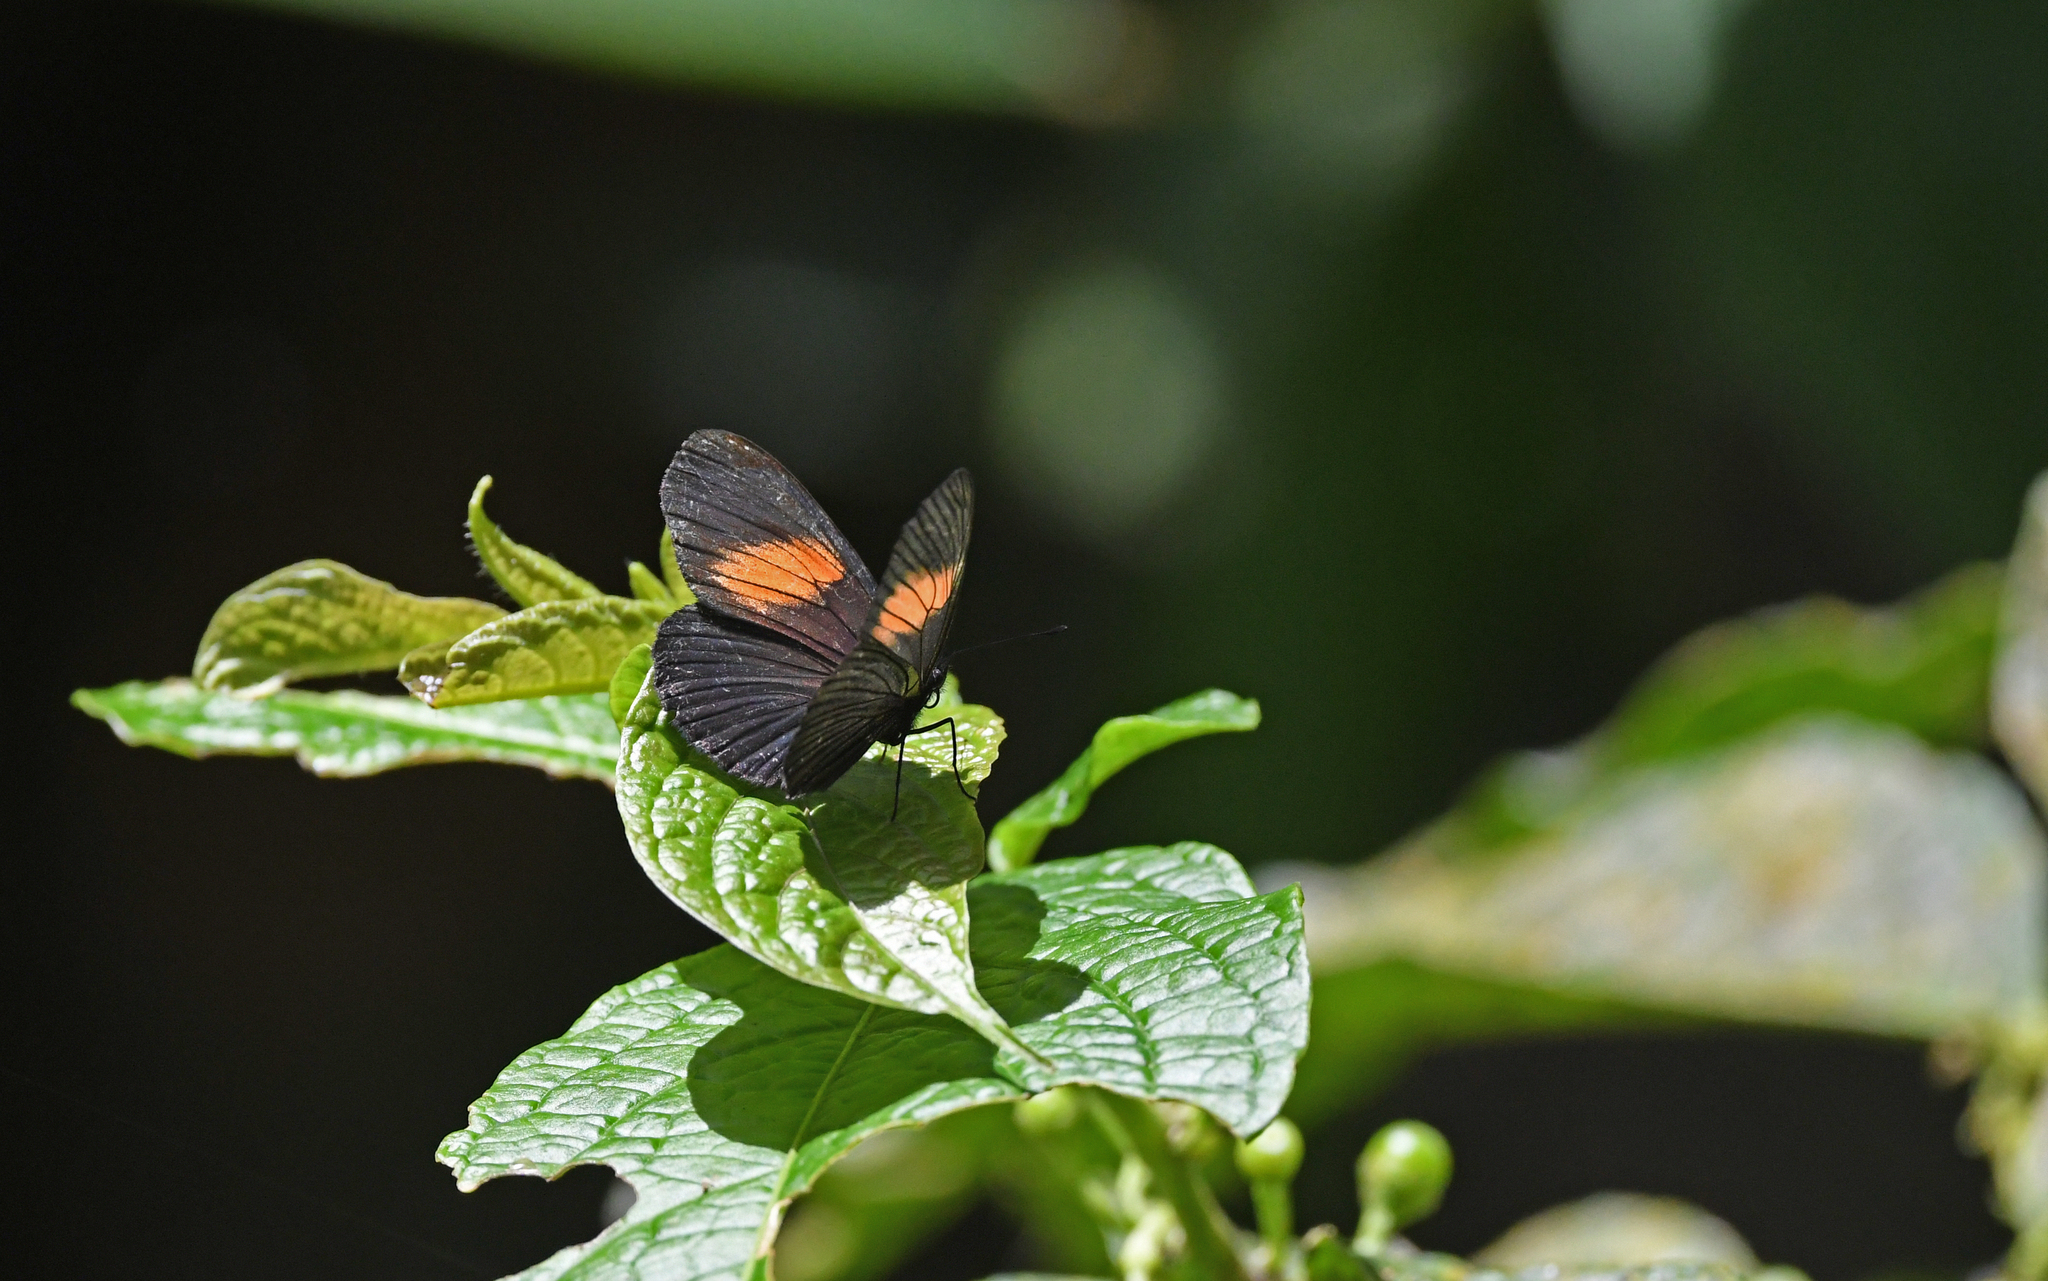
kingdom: Animalia
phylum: Arthropoda
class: Insecta
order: Lepidoptera
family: Nymphalidae
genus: Castilia
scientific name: Castilia castilla
